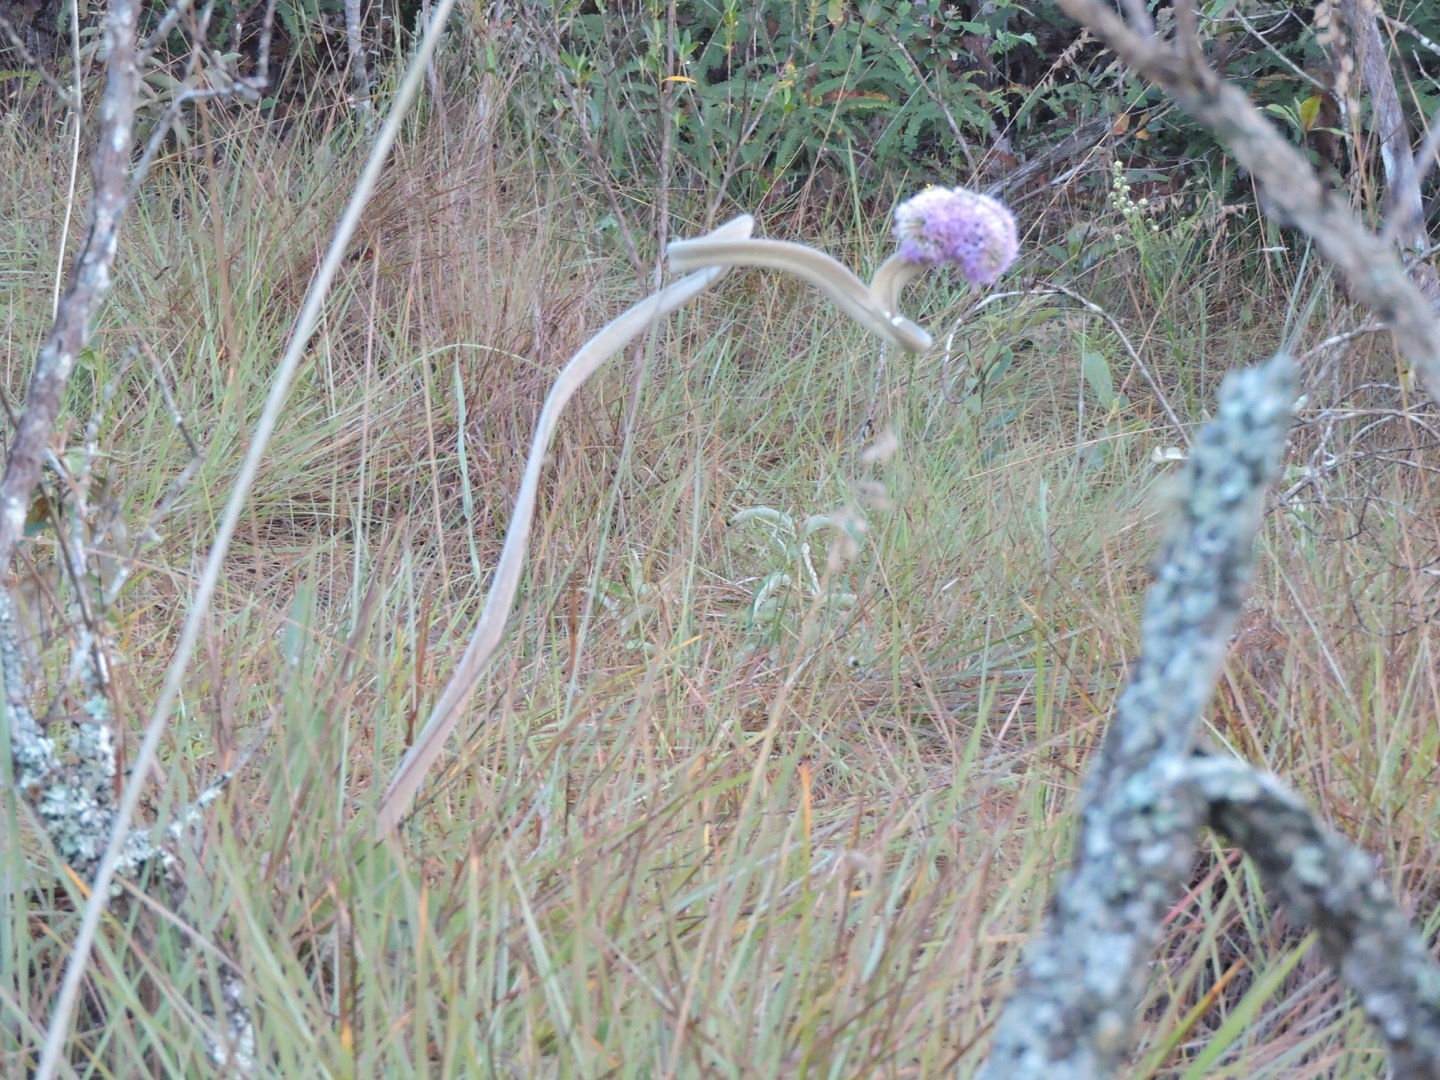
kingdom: Plantae
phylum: Tracheophyta
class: Magnoliopsida
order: Asterales
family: Asteraceae
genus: Chresta
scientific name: Chresta sphaerocephala
